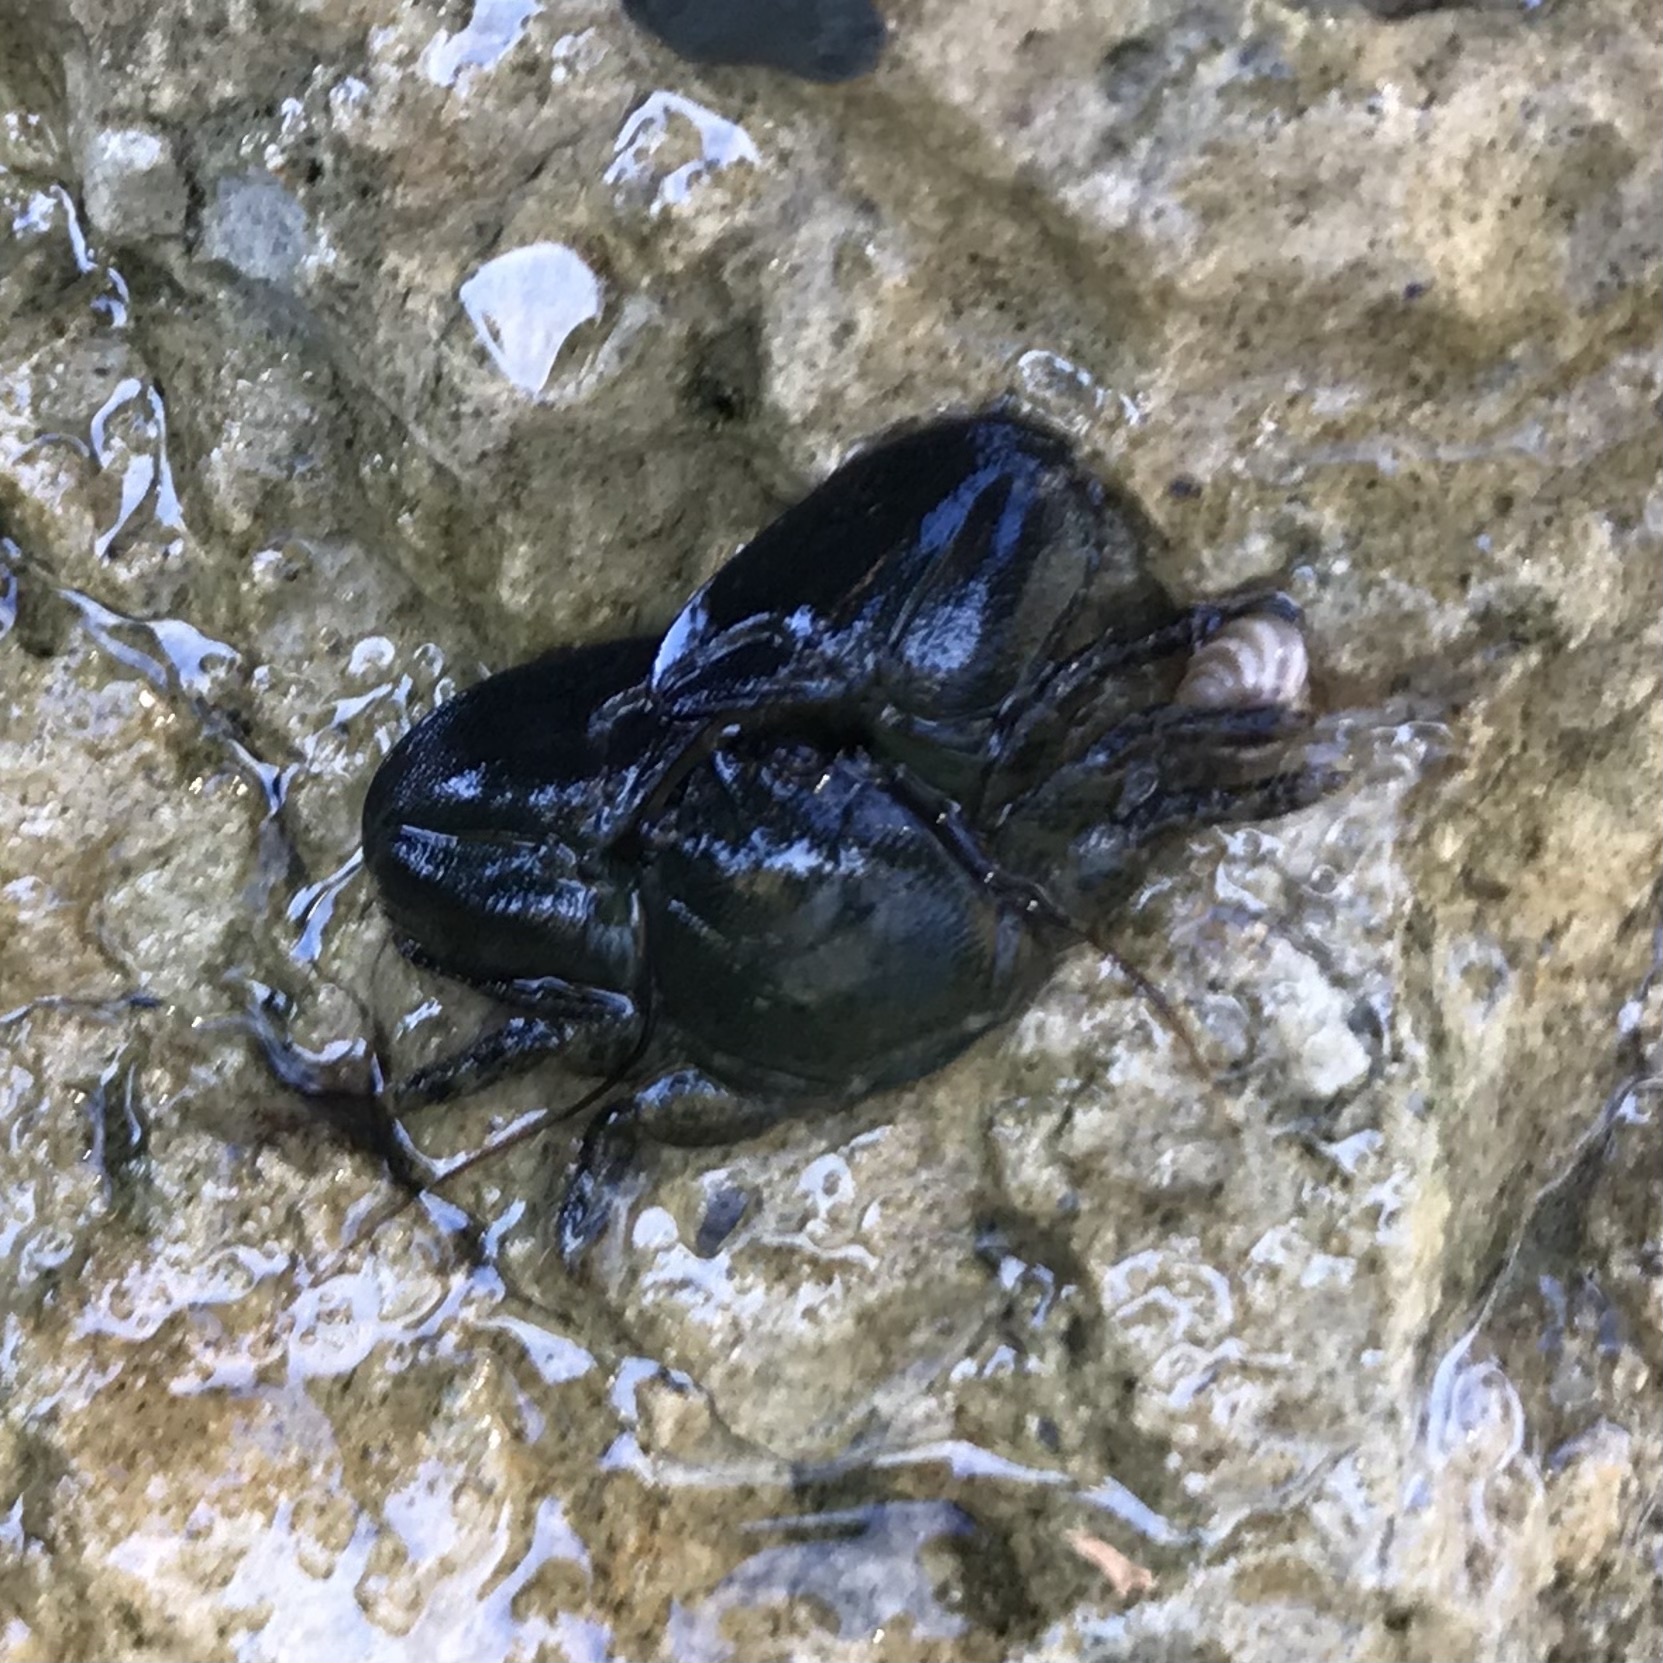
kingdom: Animalia
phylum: Arthropoda
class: Malacostraca
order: Decapoda
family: Porcellanidae
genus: Petrolisthes
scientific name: Petrolisthes elongatus
